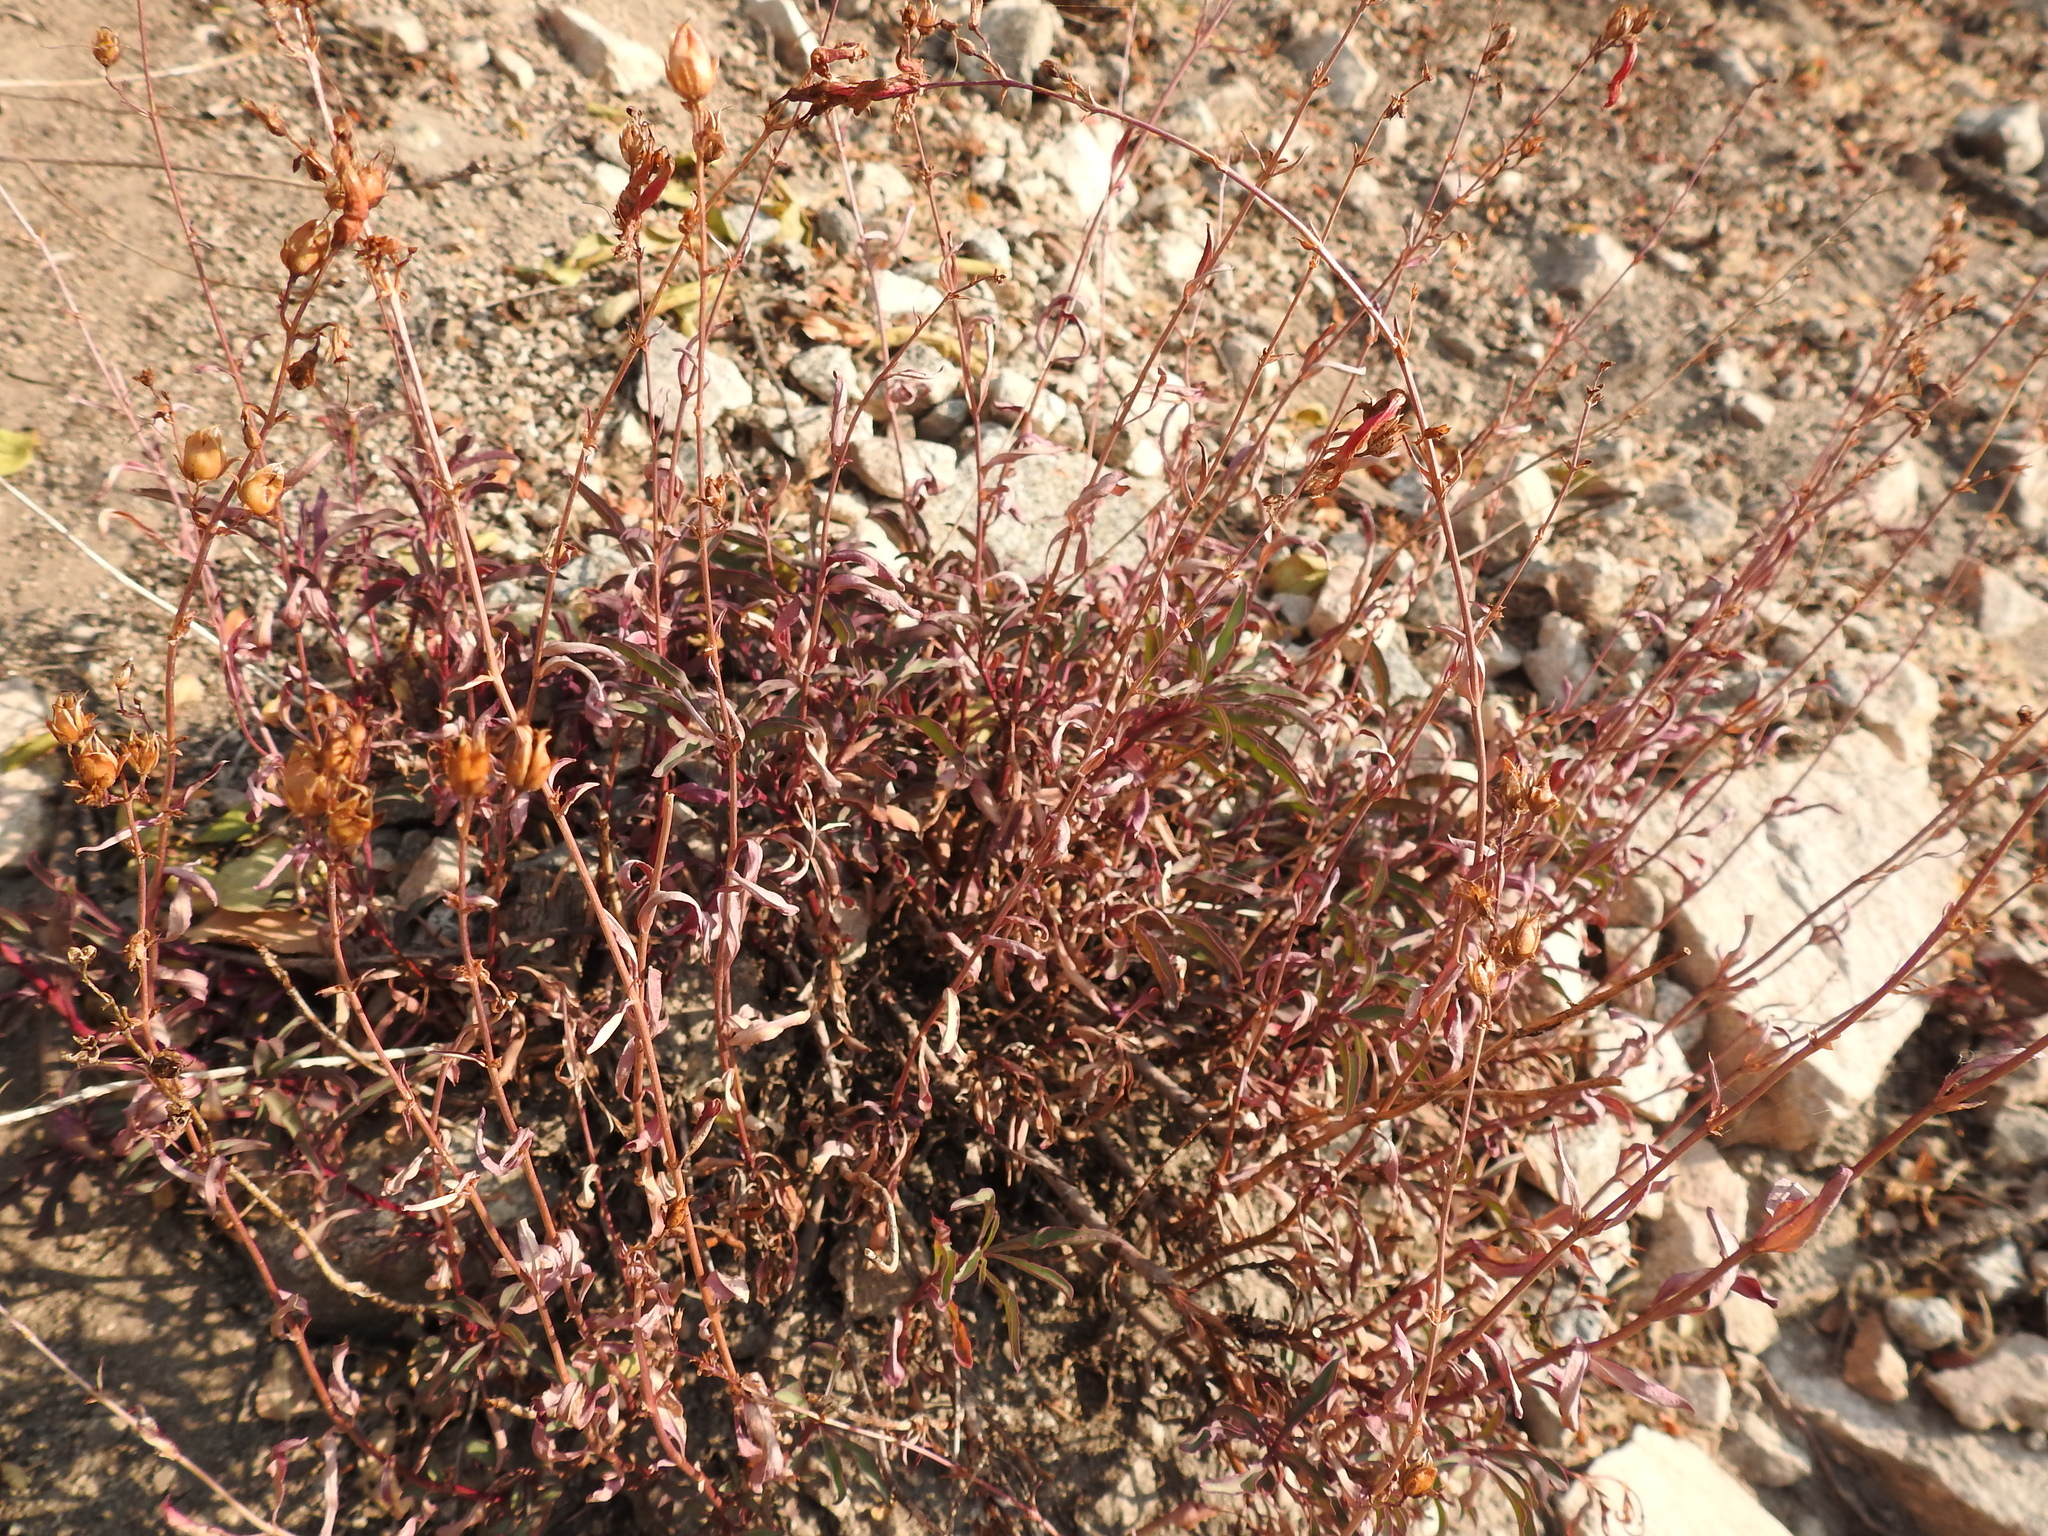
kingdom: Plantae
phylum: Tracheophyta
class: Magnoliopsida
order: Lamiales
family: Plantaginaceae
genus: Penstemon
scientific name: Penstemon rostriflorus
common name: Bridges's penstemon
